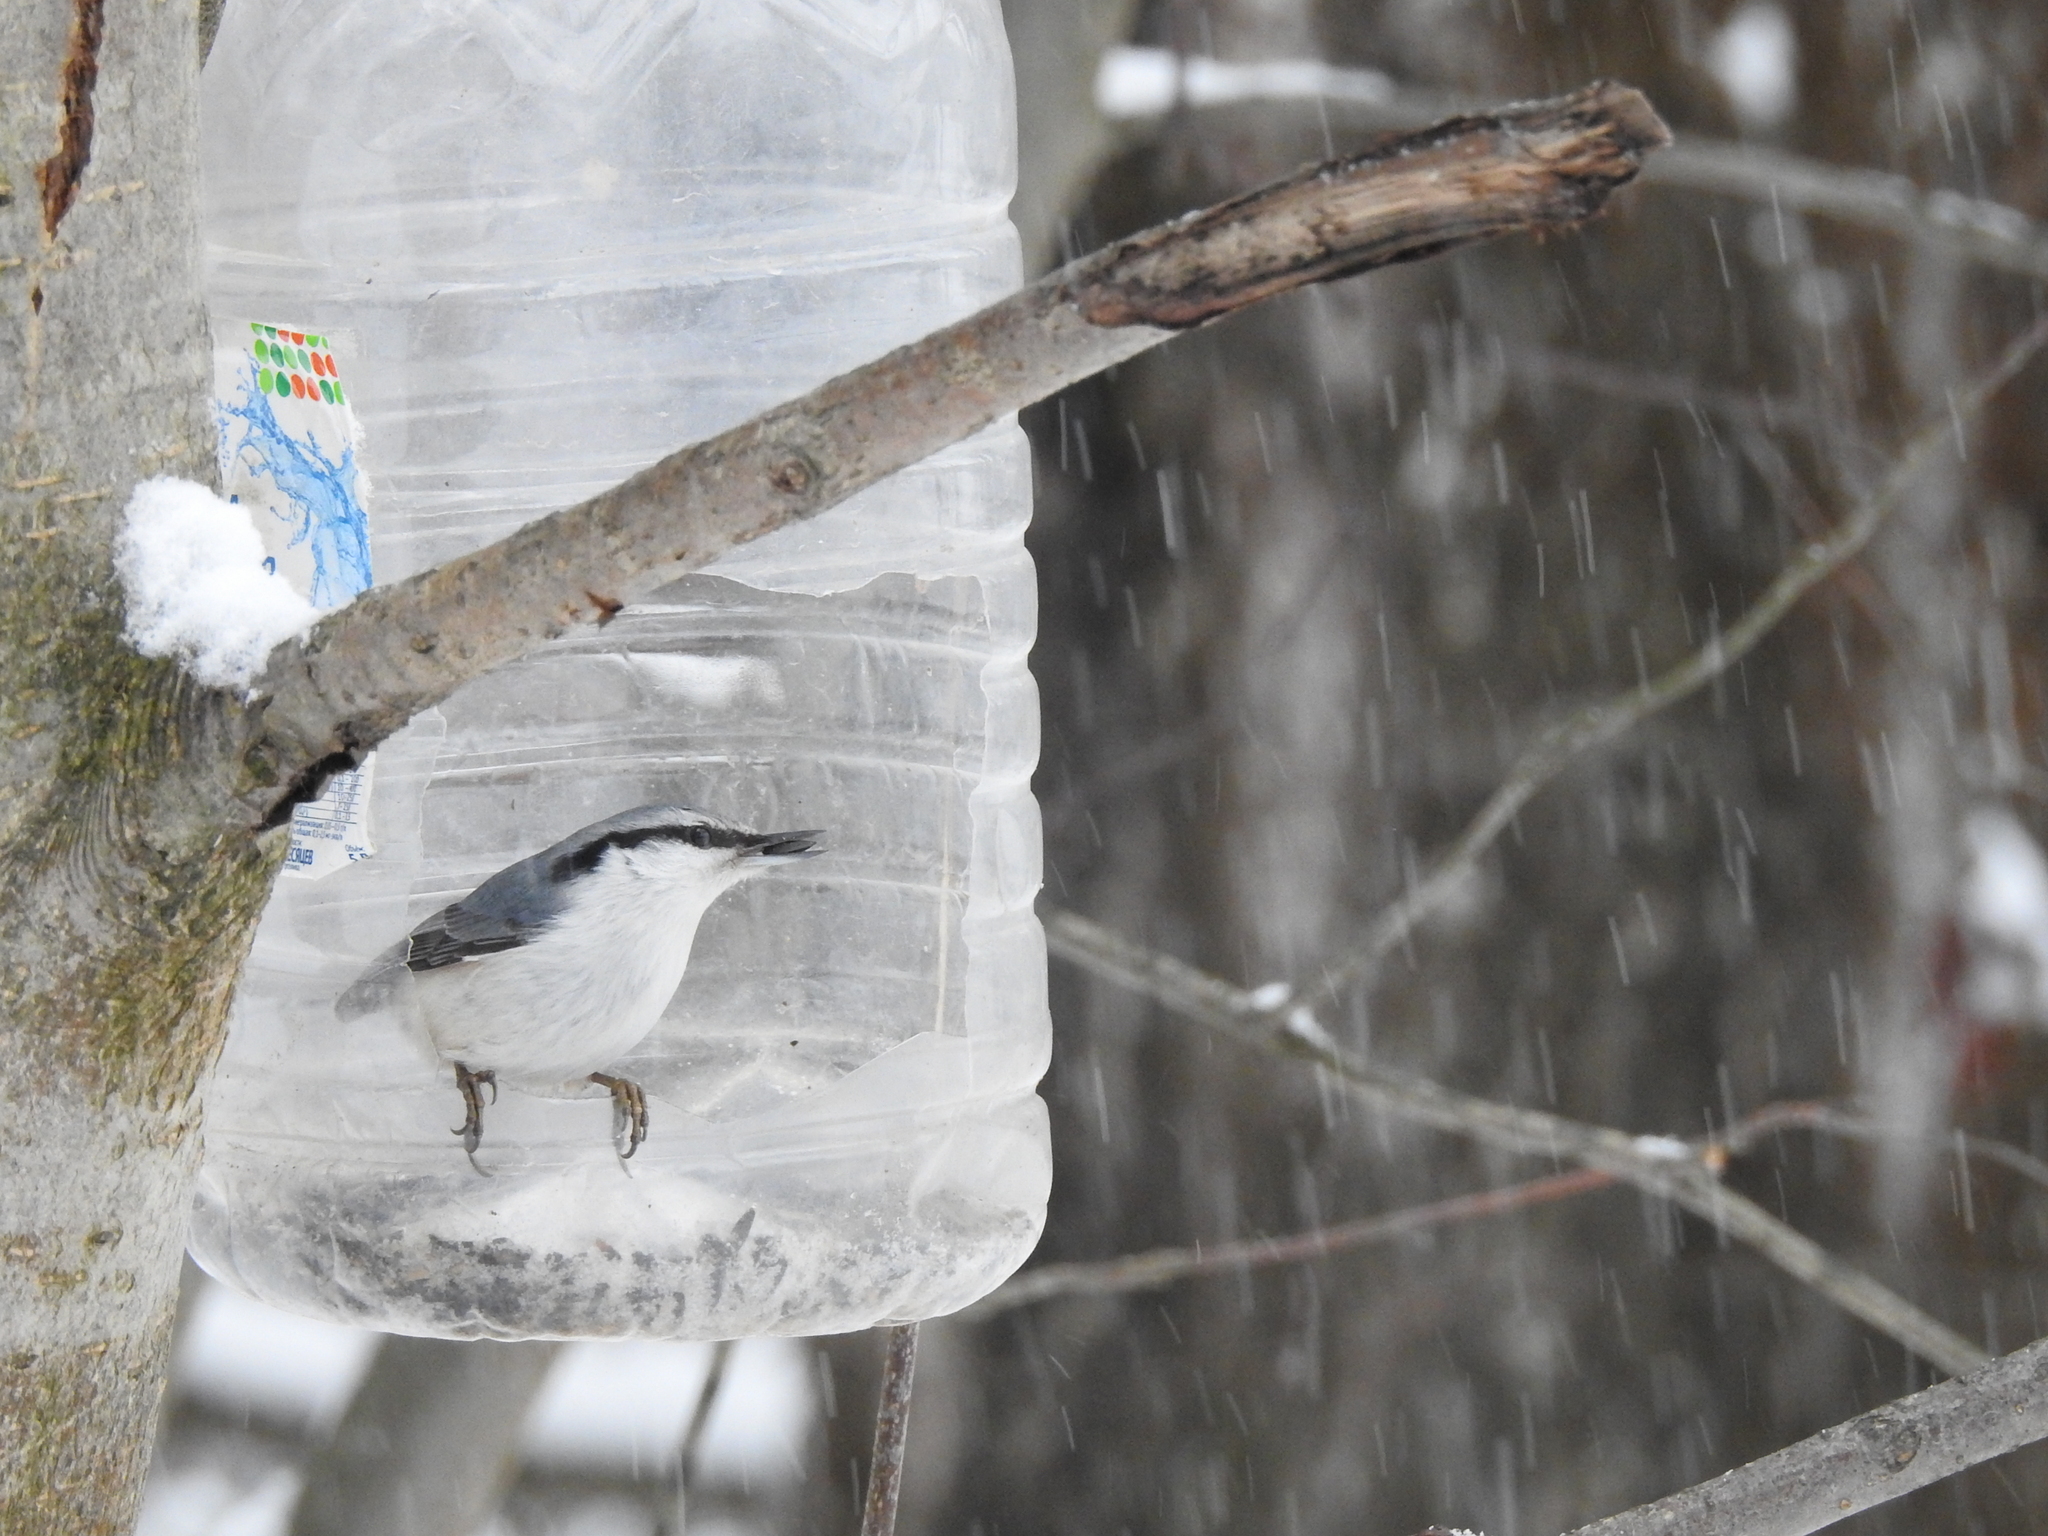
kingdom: Animalia
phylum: Chordata
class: Aves
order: Passeriformes
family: Sittidae
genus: Sitta
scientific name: Sitta europaea
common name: Eurasian nuthatch
